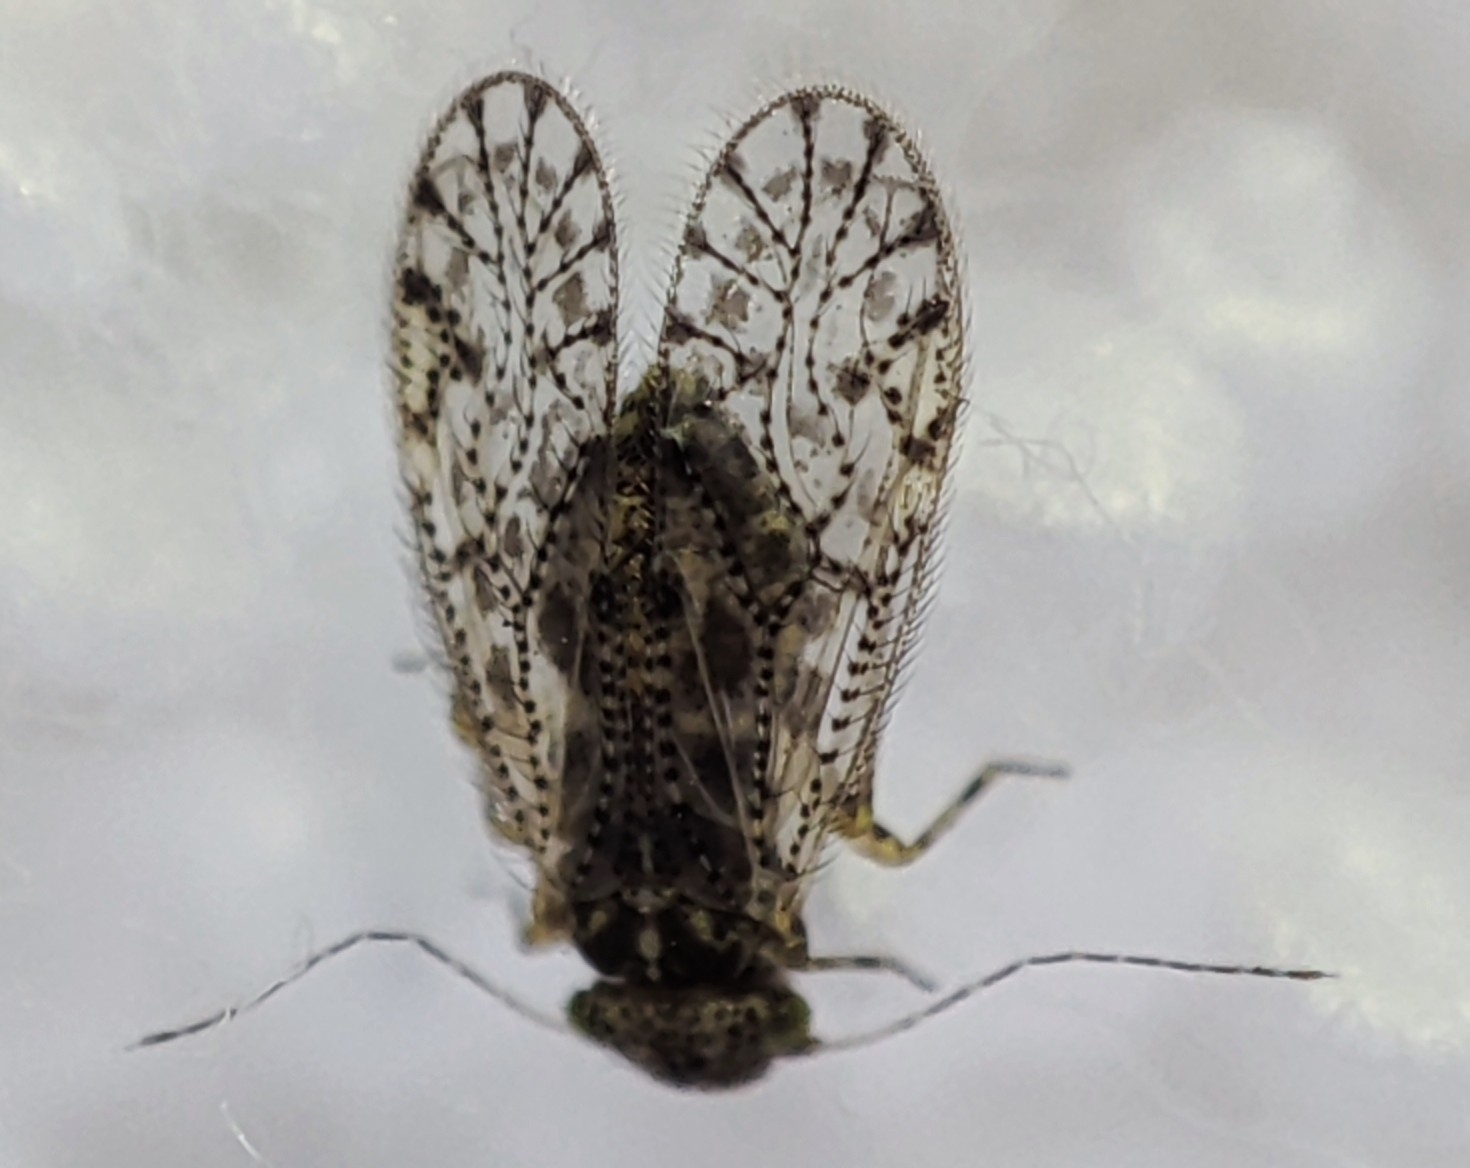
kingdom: Animalia
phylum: Arthropoda
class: Insecta
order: Psocodea
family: Philotarsidae
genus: Aaroniella
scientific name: Aaroniella badonneli
